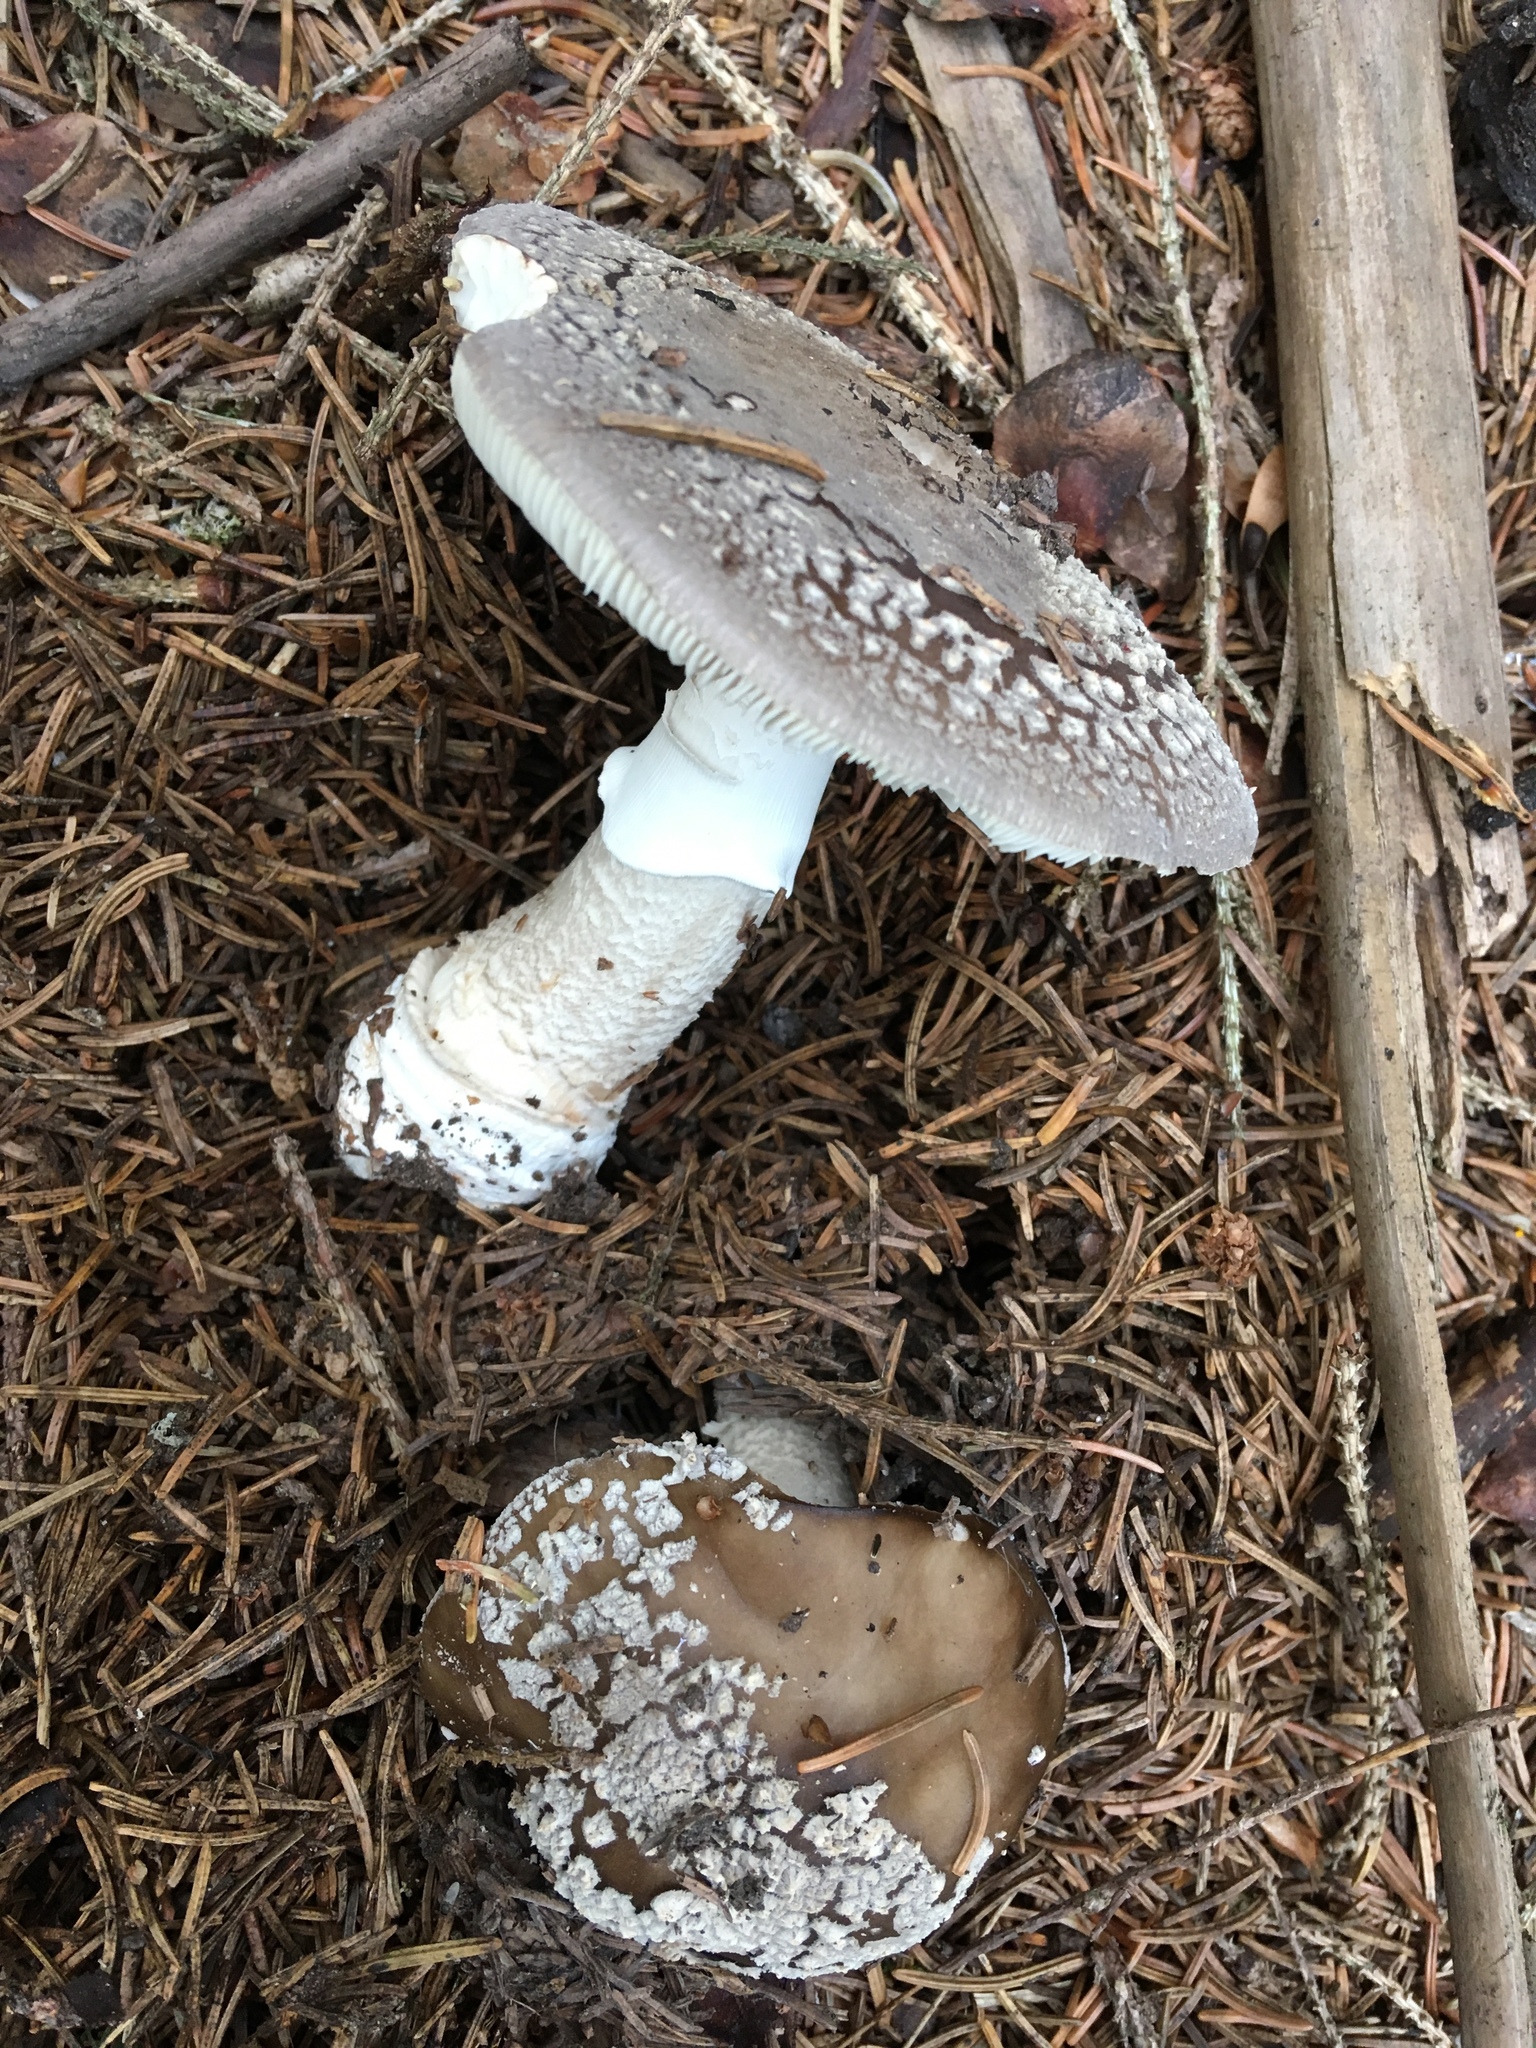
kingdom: Fungi
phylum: Basidiomycota
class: Agaricomycetes
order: Agaricales
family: Amanitaceae
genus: Amanita
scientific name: Amanita excelsa
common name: European false blusher
